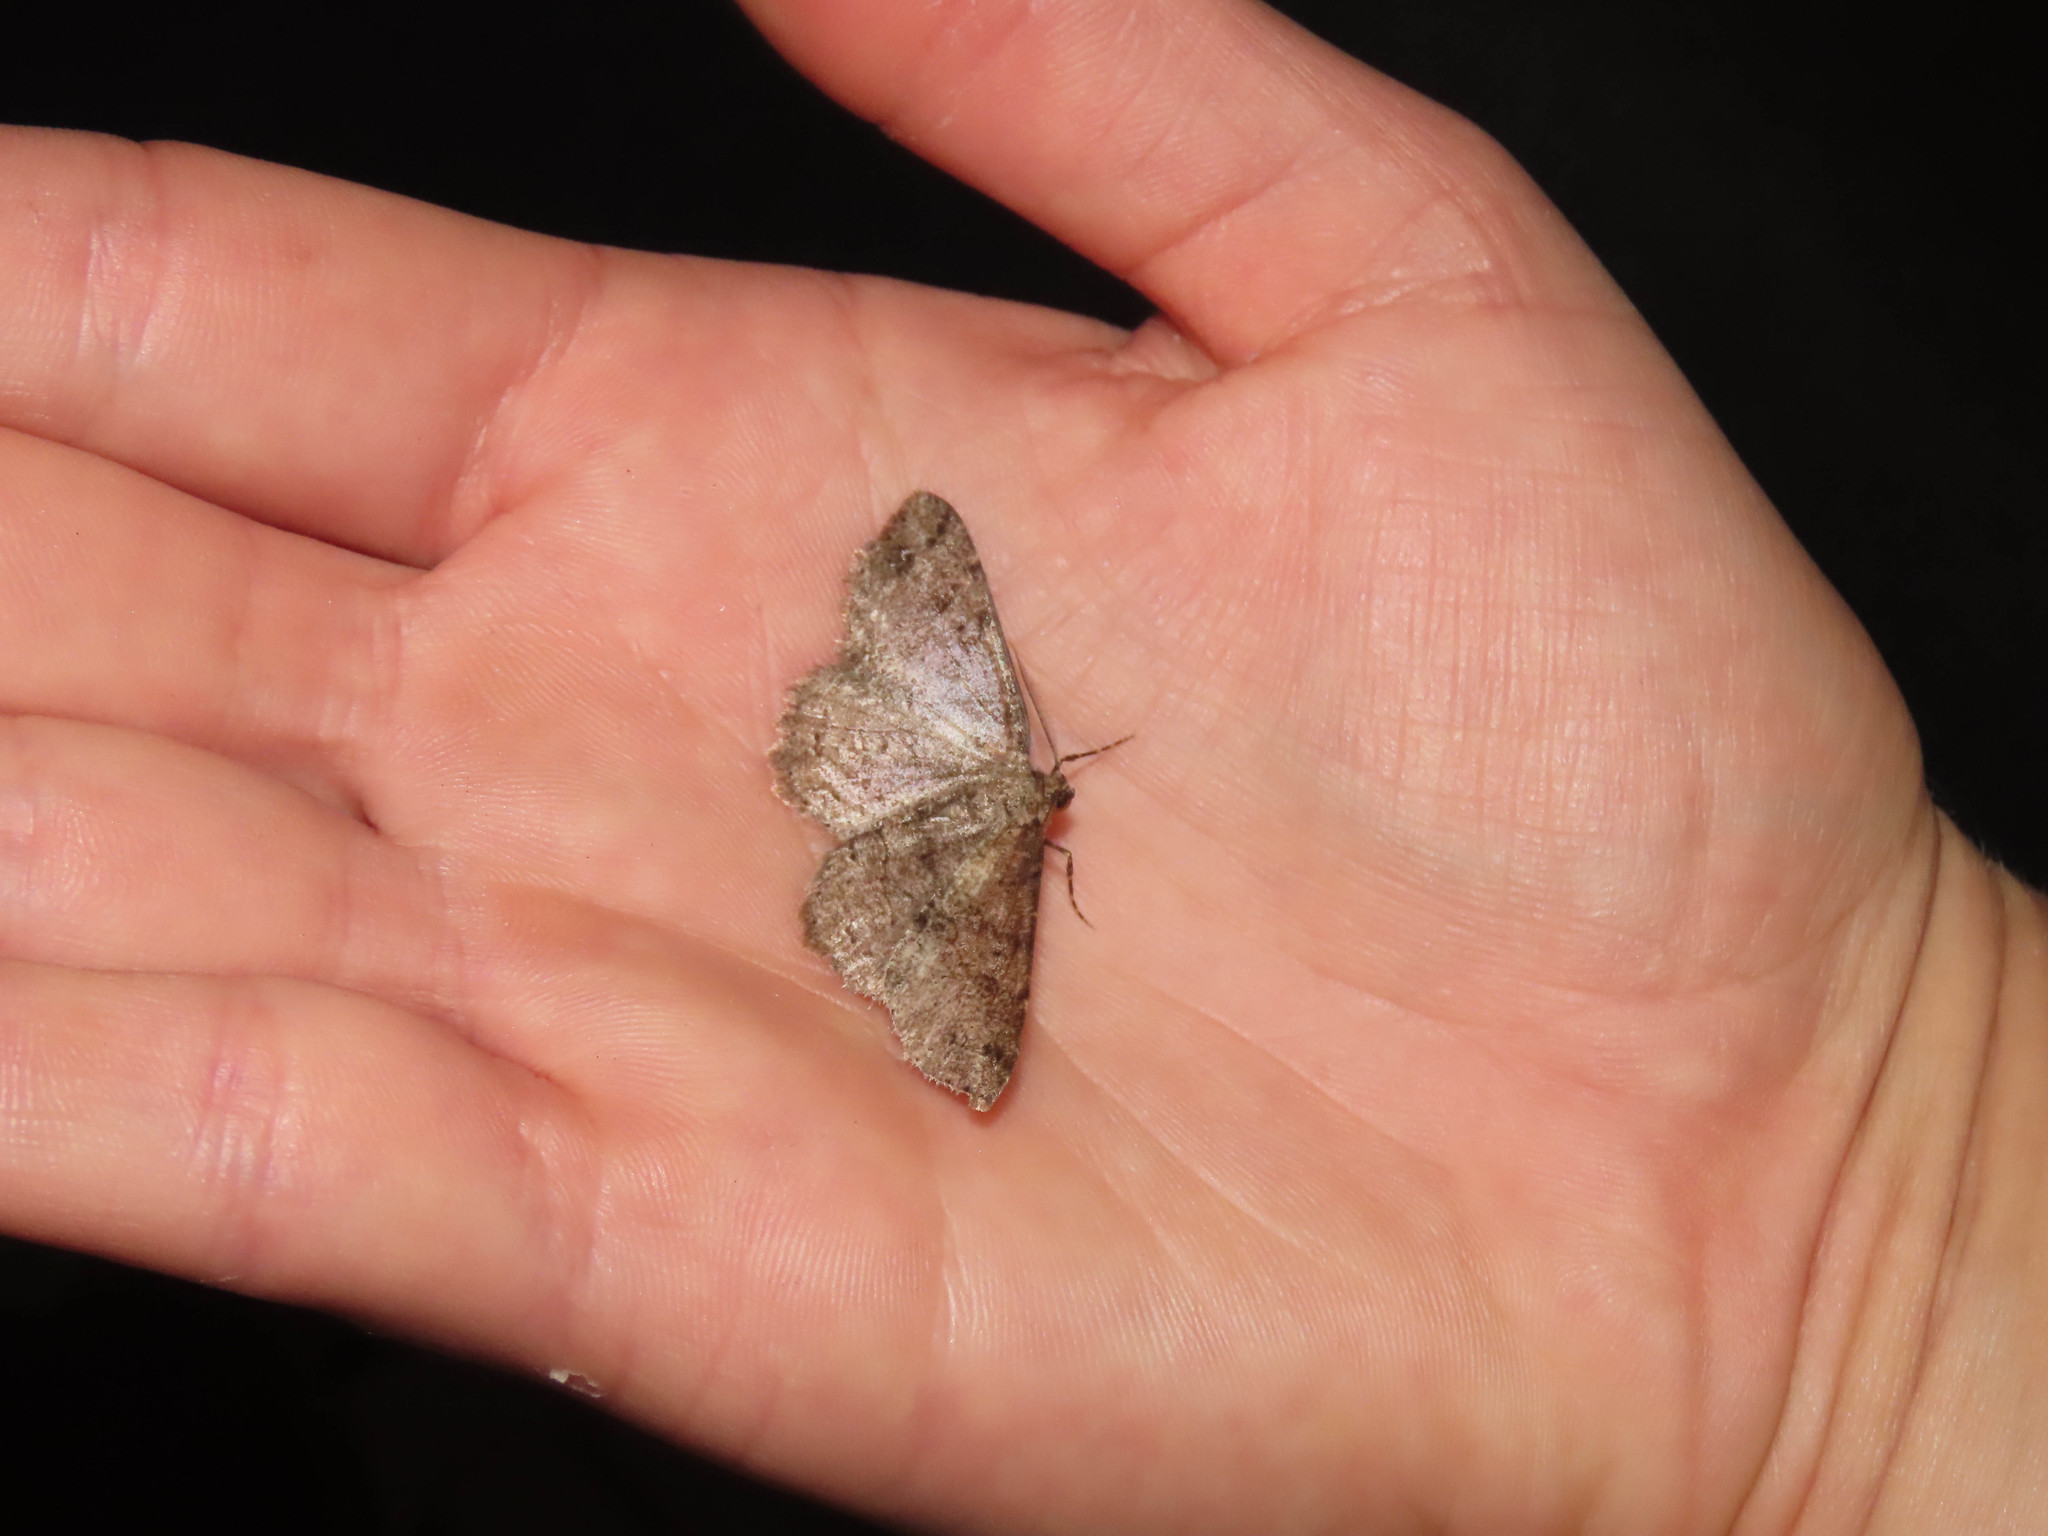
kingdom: Animalia
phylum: Arthropoda
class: Insecta
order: Lepidoptera
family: Geometridae
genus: Melanolophia
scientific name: Melanolophia canadaria
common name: Canadian melanolophia
